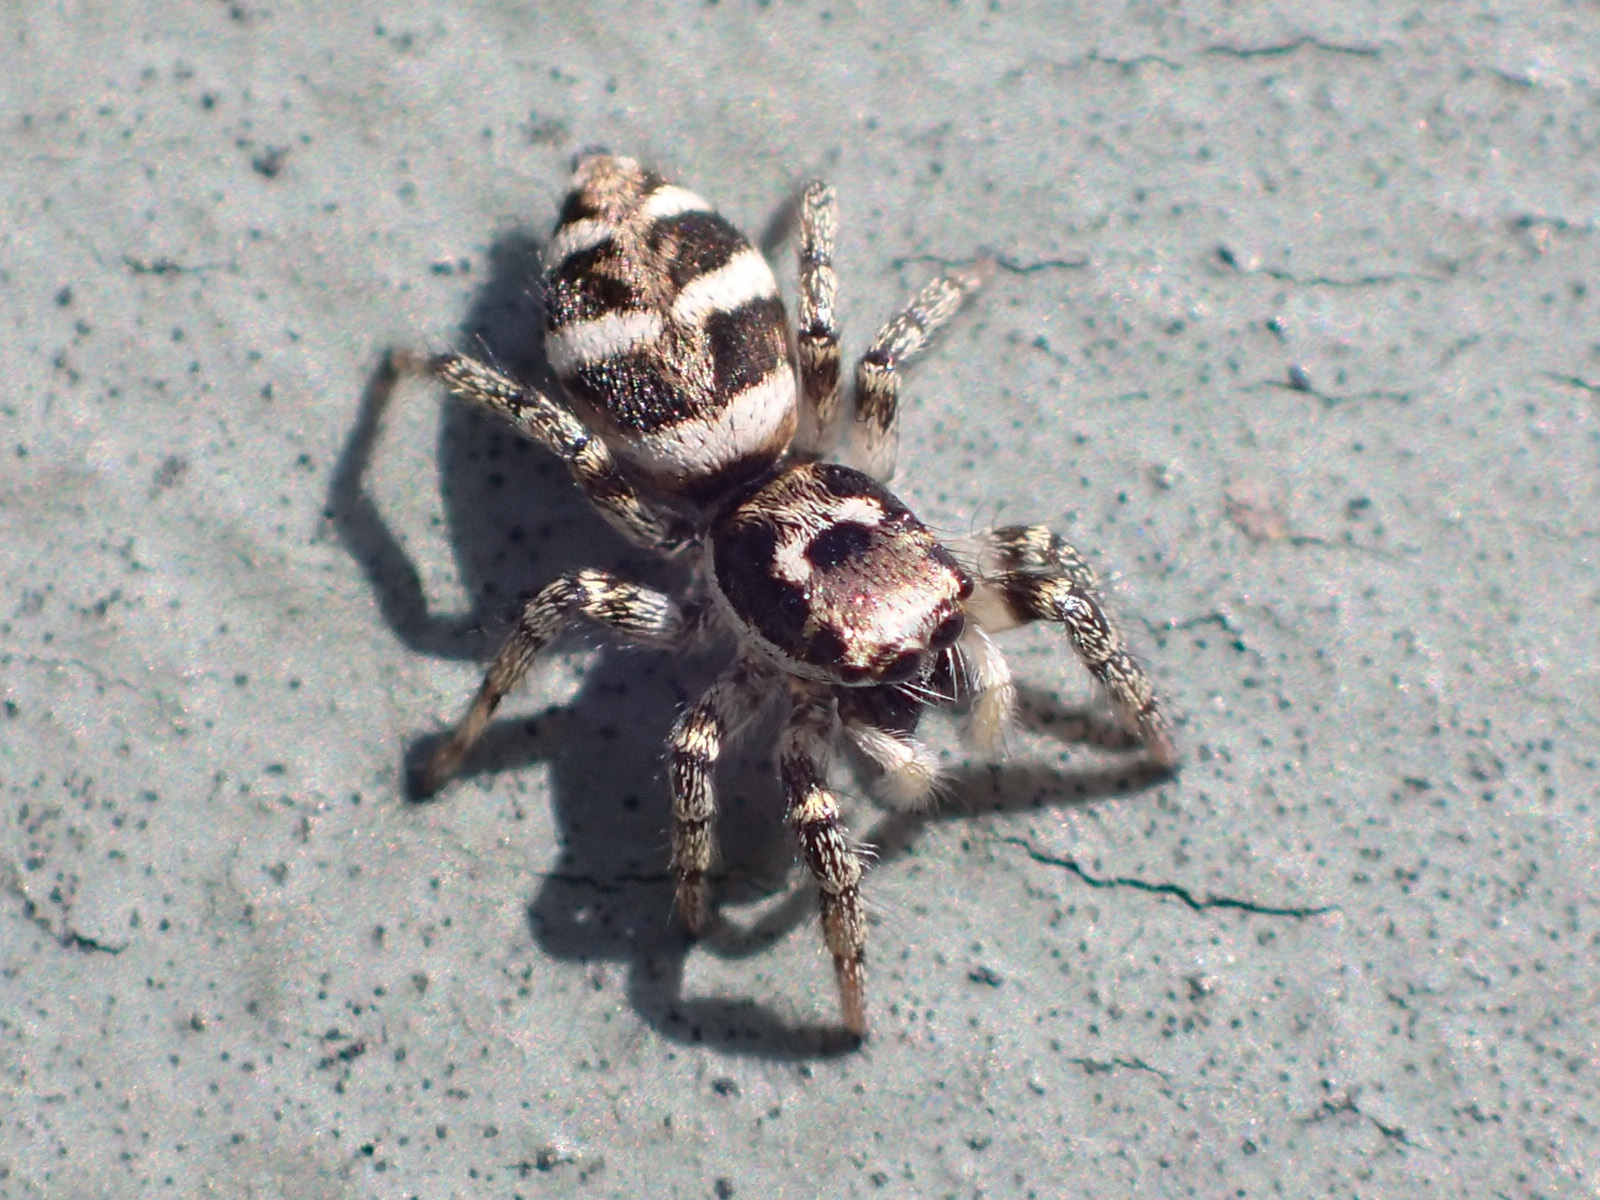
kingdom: Animalia
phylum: Arthropoda
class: Arachnida
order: Araneae
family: Salticidae
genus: Salticus
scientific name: Salticus scenicus
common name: Zebra jumper
